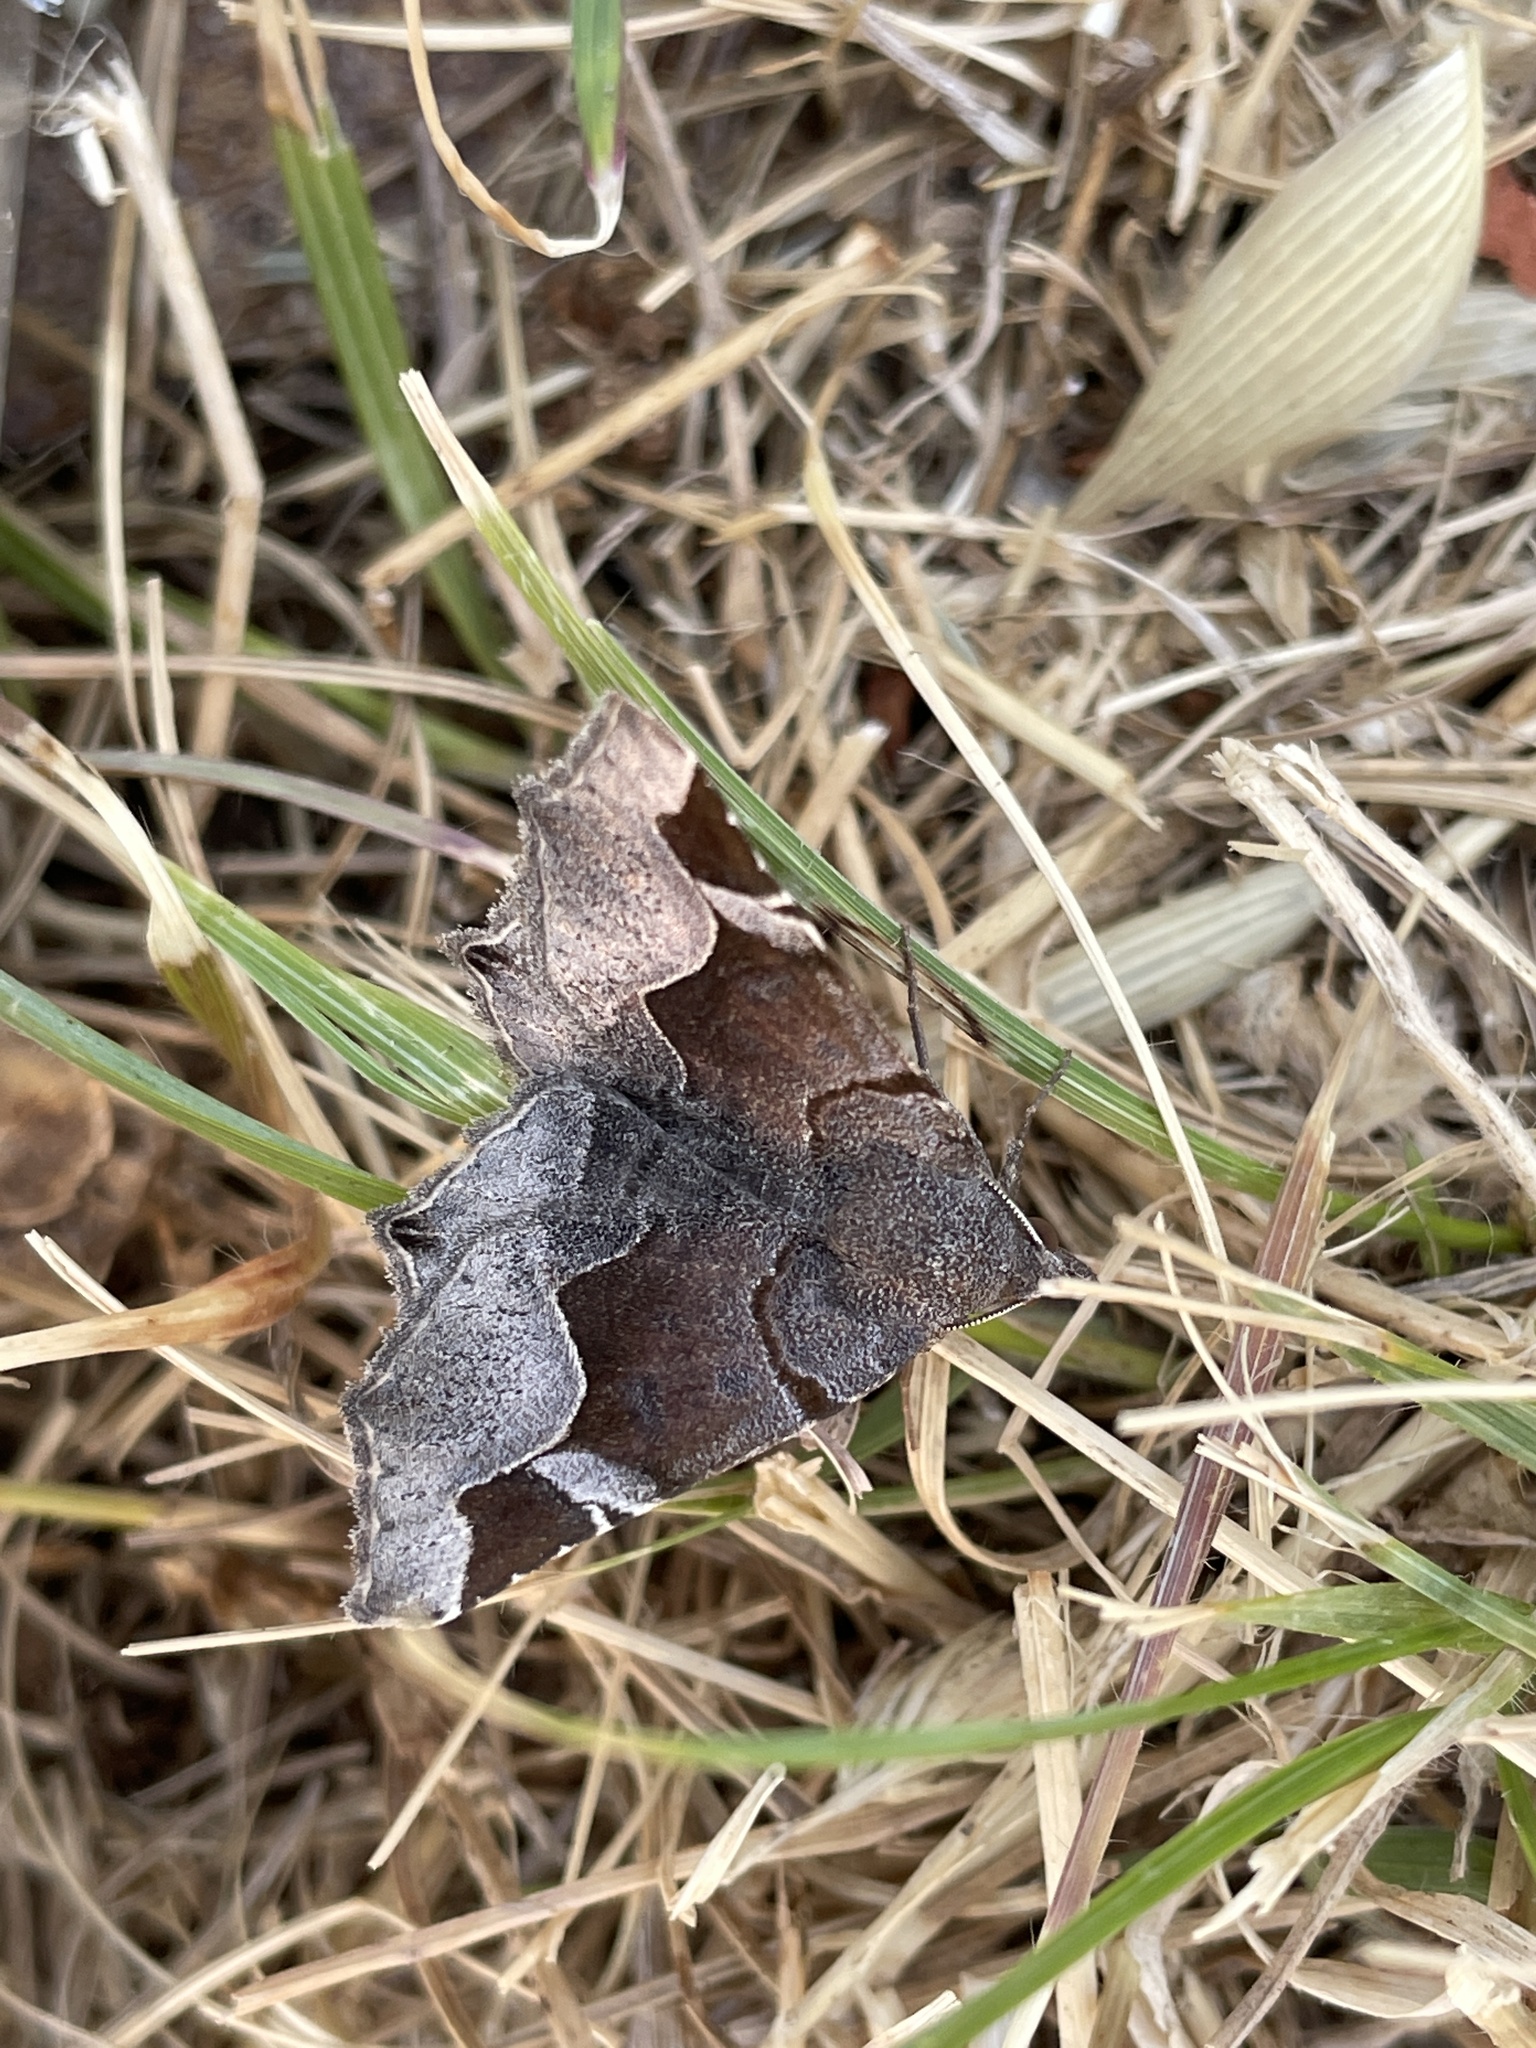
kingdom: Animalia
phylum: Arthropoda
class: Insecta
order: Lepidoptera
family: Erebidae
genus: Zethes
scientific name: Zethes insularis
